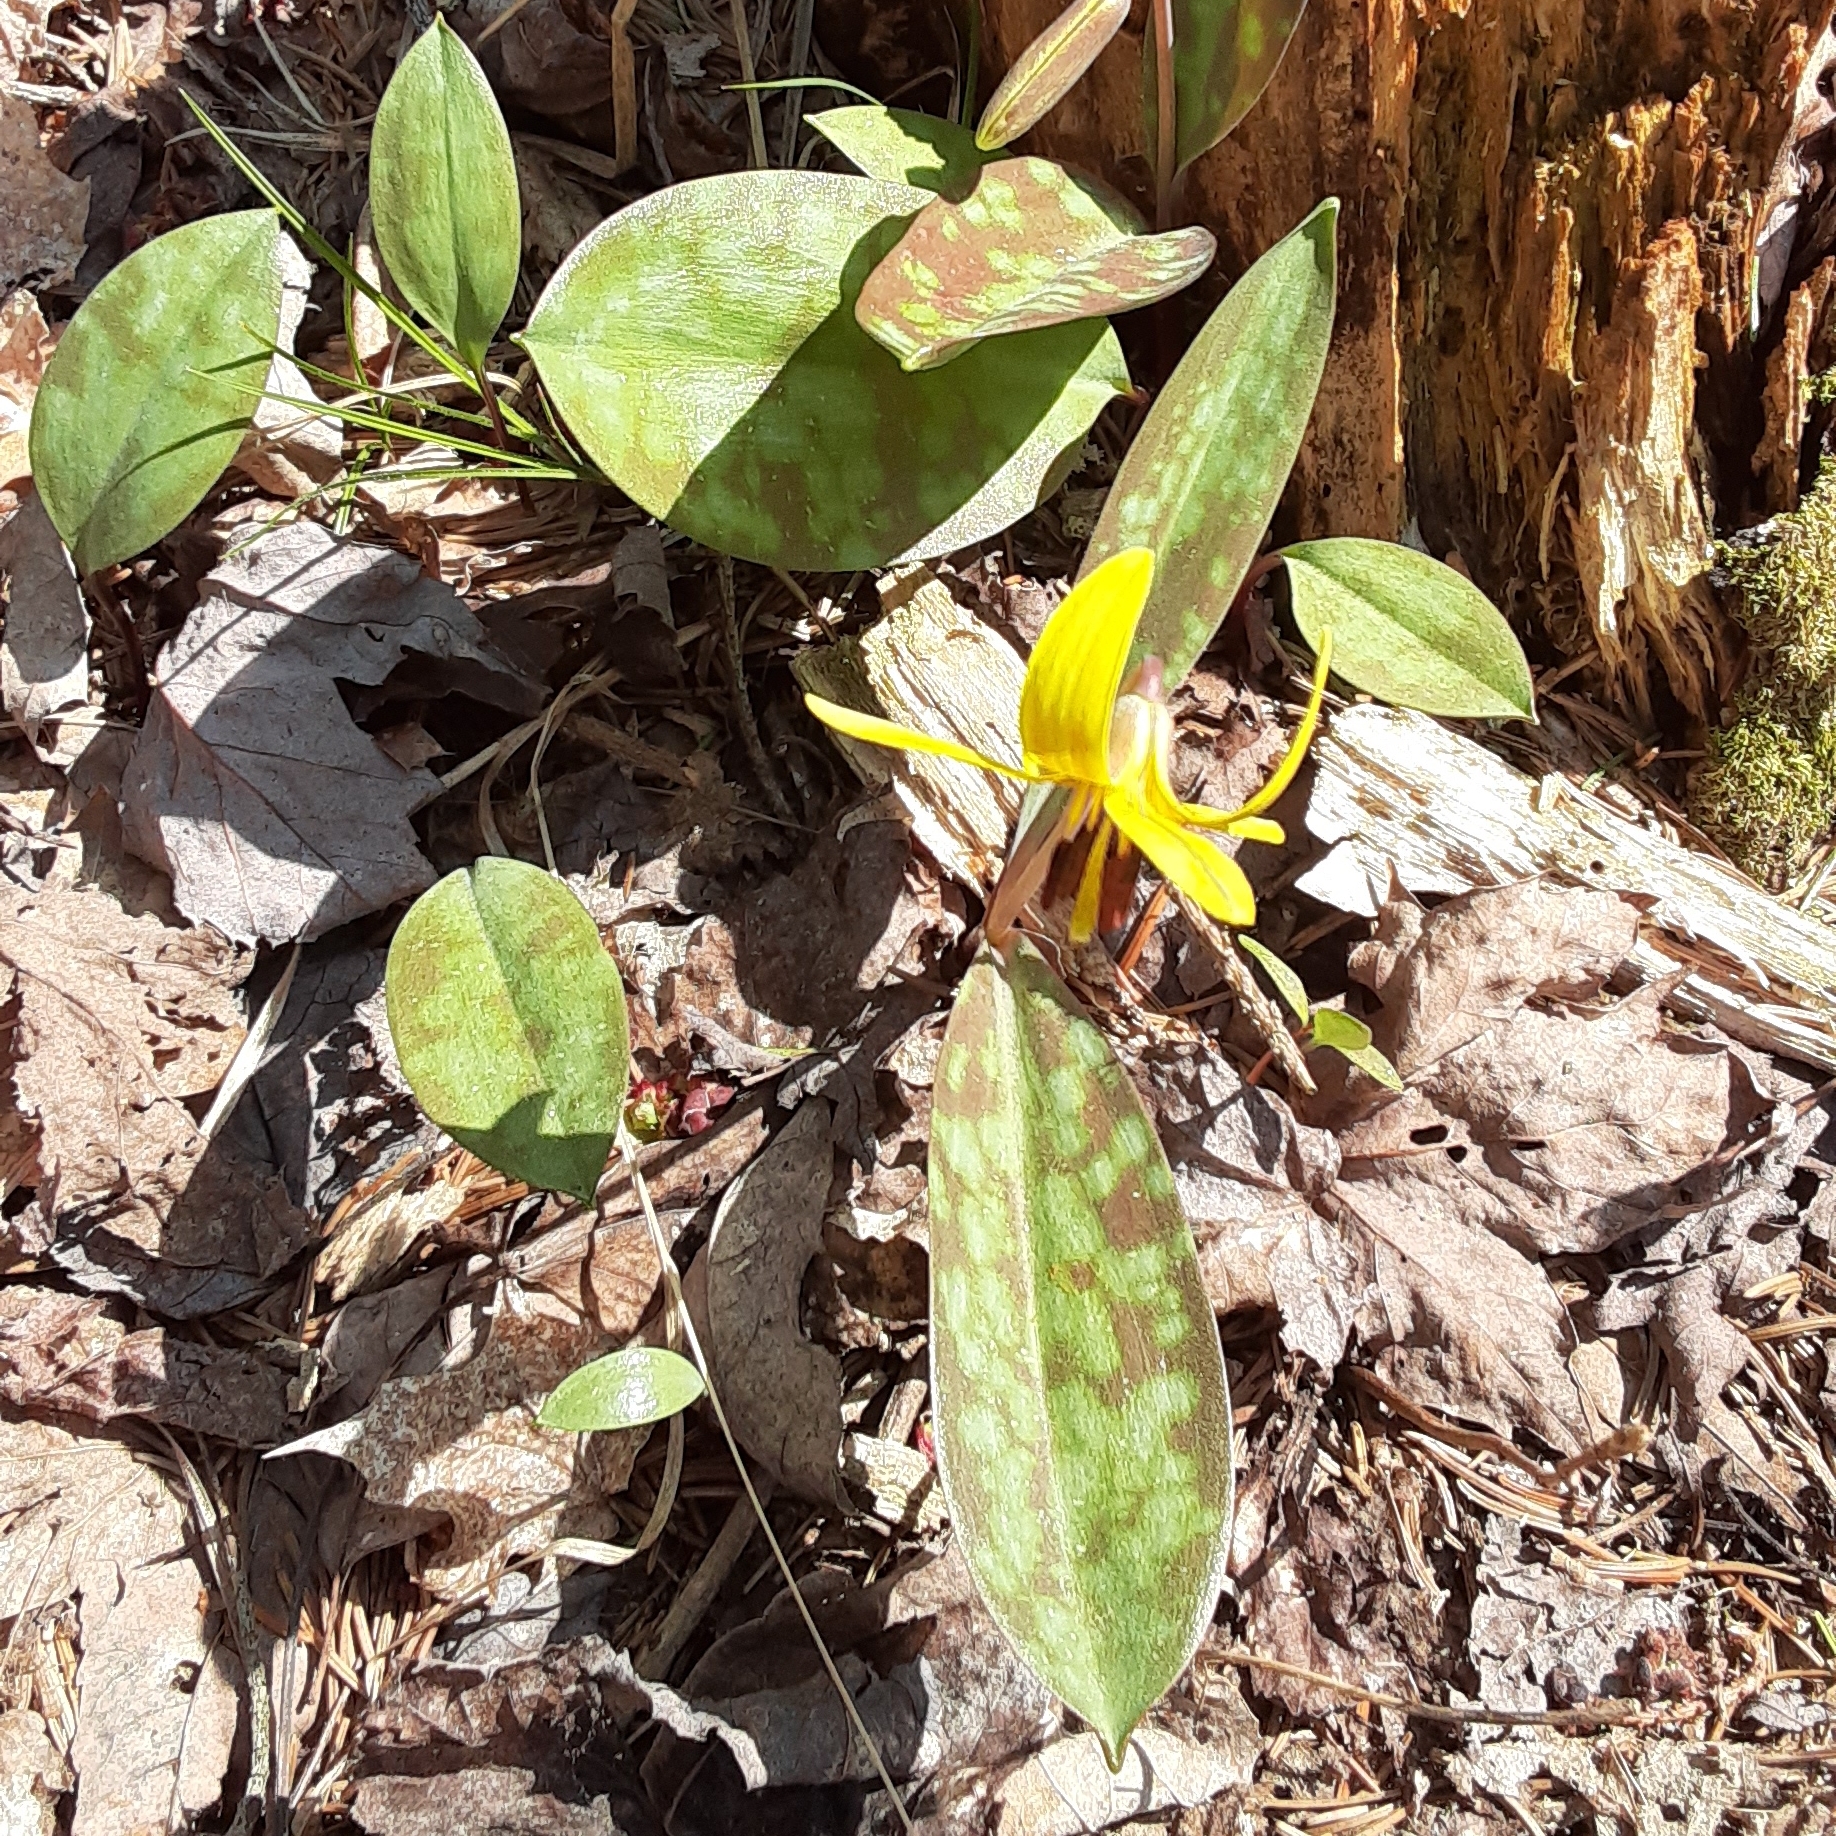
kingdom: Plantae
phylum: Tracheophyta
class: Liliopsida
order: Liliales
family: Liliaceae
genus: Erythronium
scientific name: Erythronium americanum
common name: Yellow adder's-tongue
